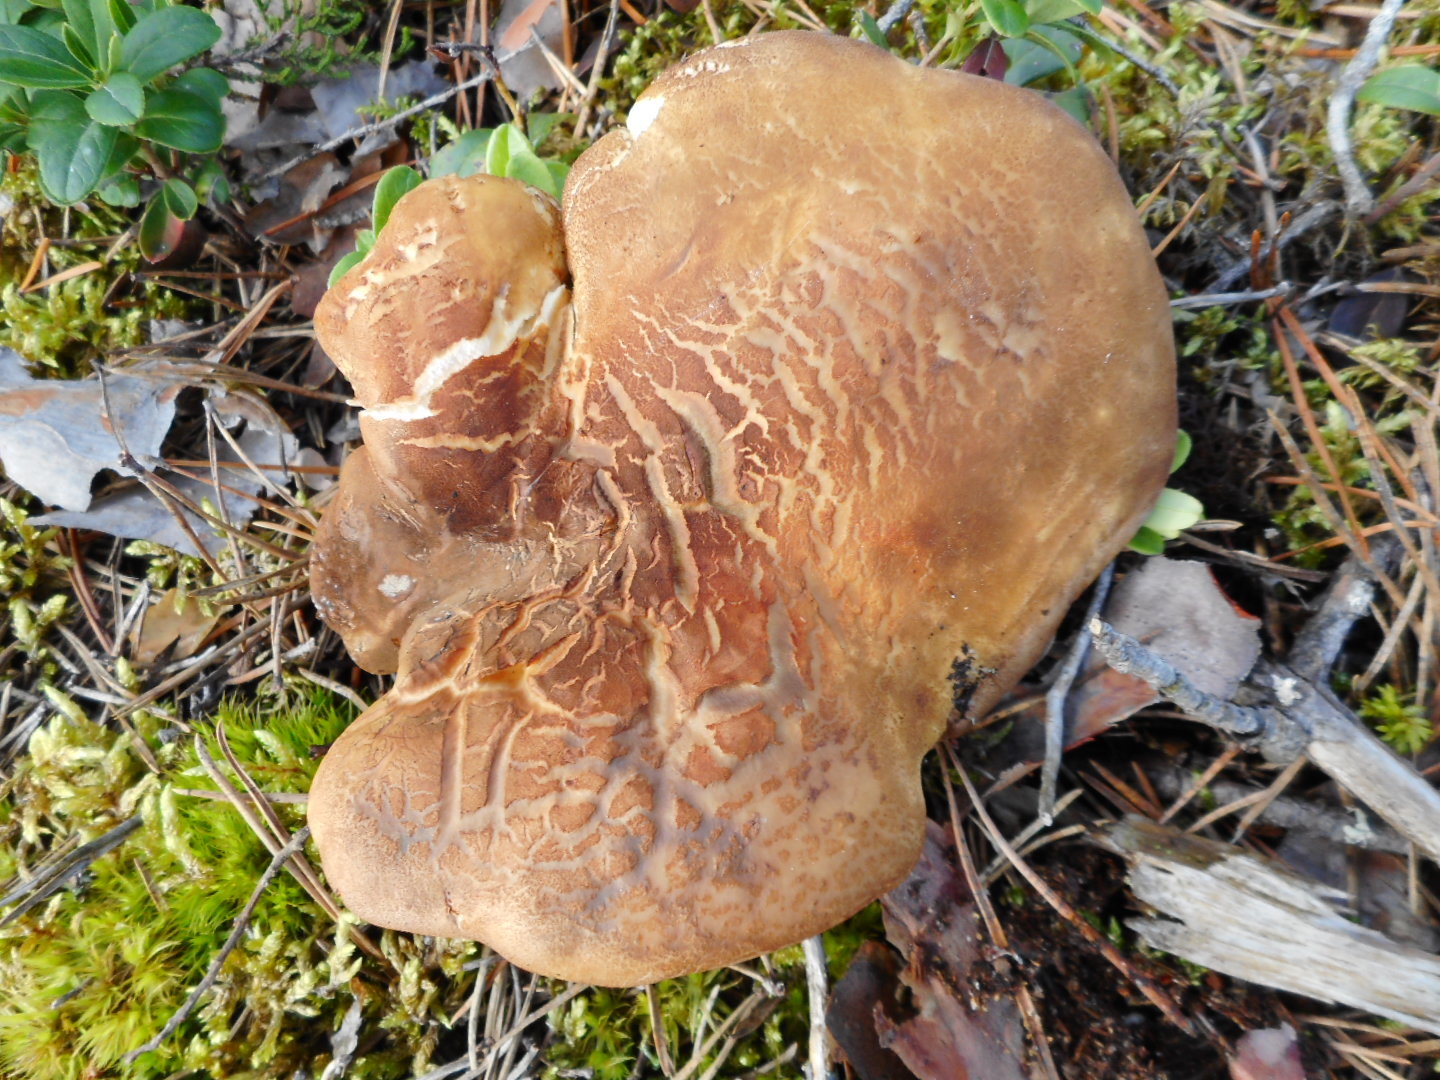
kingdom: Fungi
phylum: Basidiomycota
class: Agaricomycetes
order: Boletales
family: Tapinellaceae
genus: Tapinella
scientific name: Tapinella atrotomentosa
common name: Velvet rollrim
